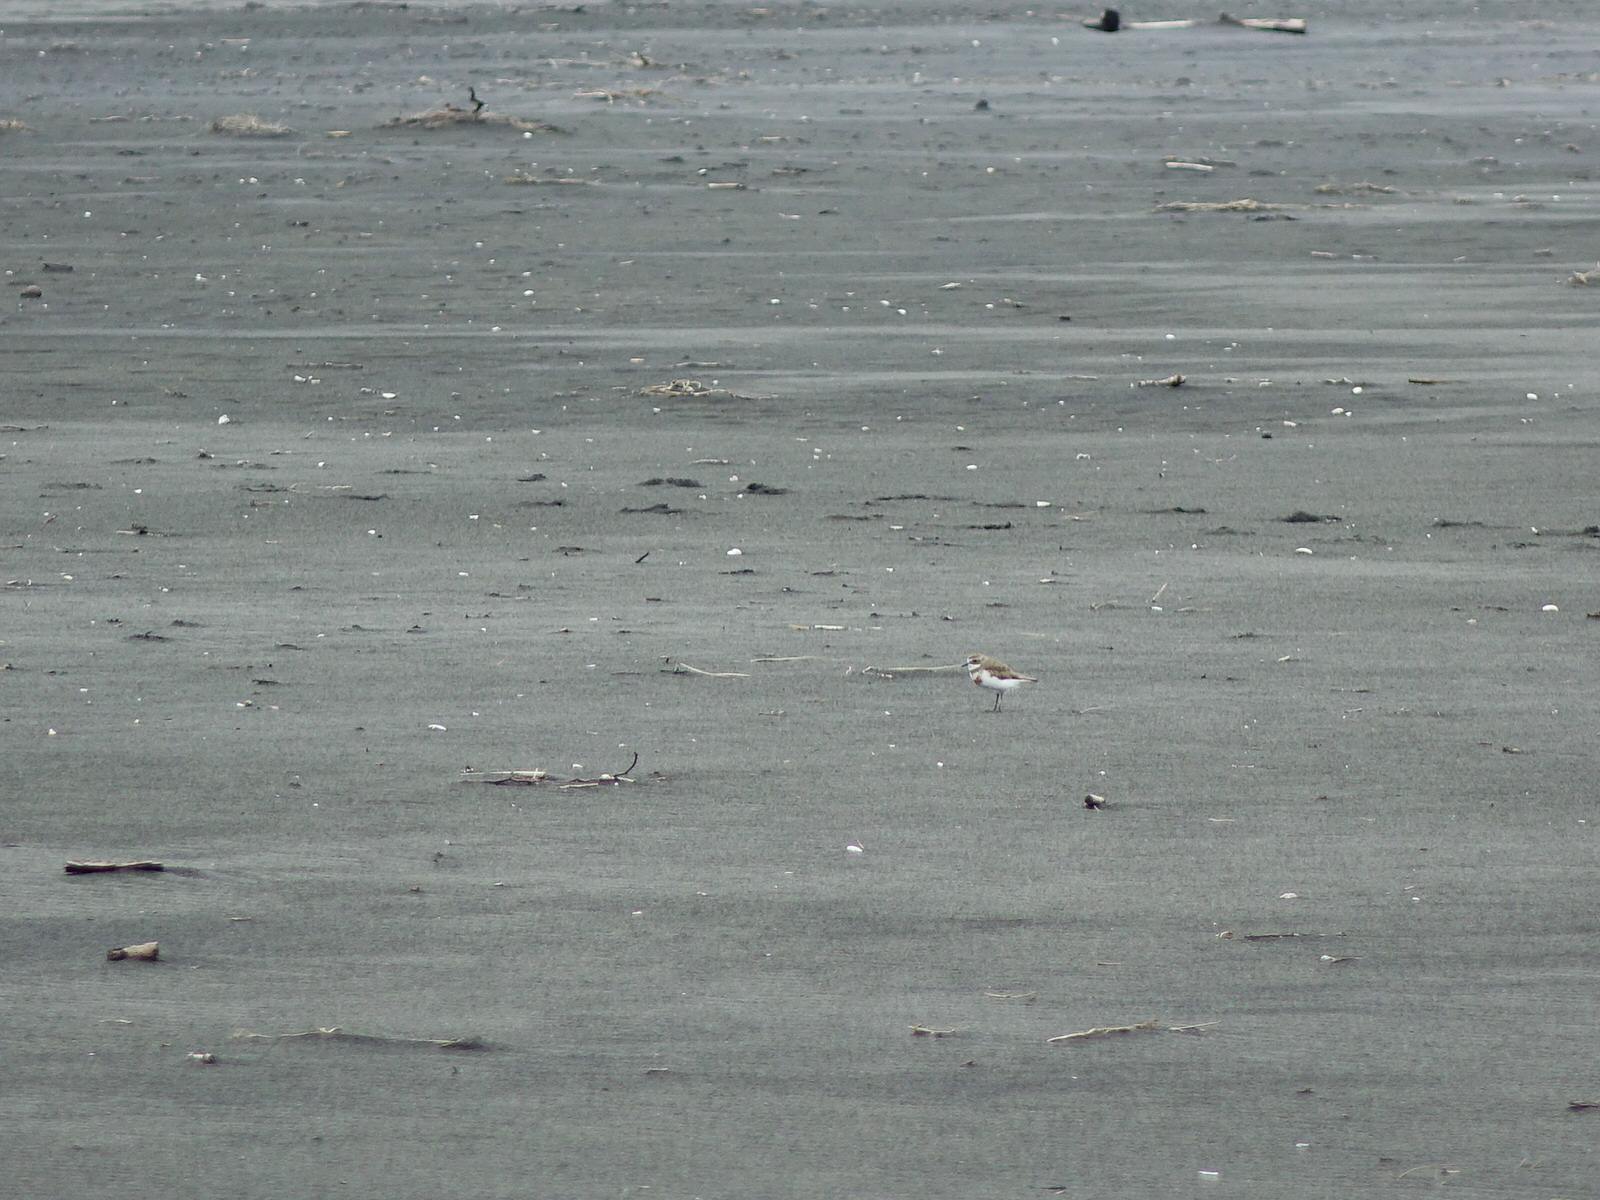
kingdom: Animalia
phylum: Chordata
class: Aves
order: Charadriiformes
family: Charadriidae
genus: Anarhynchus
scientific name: Anarhynchus
